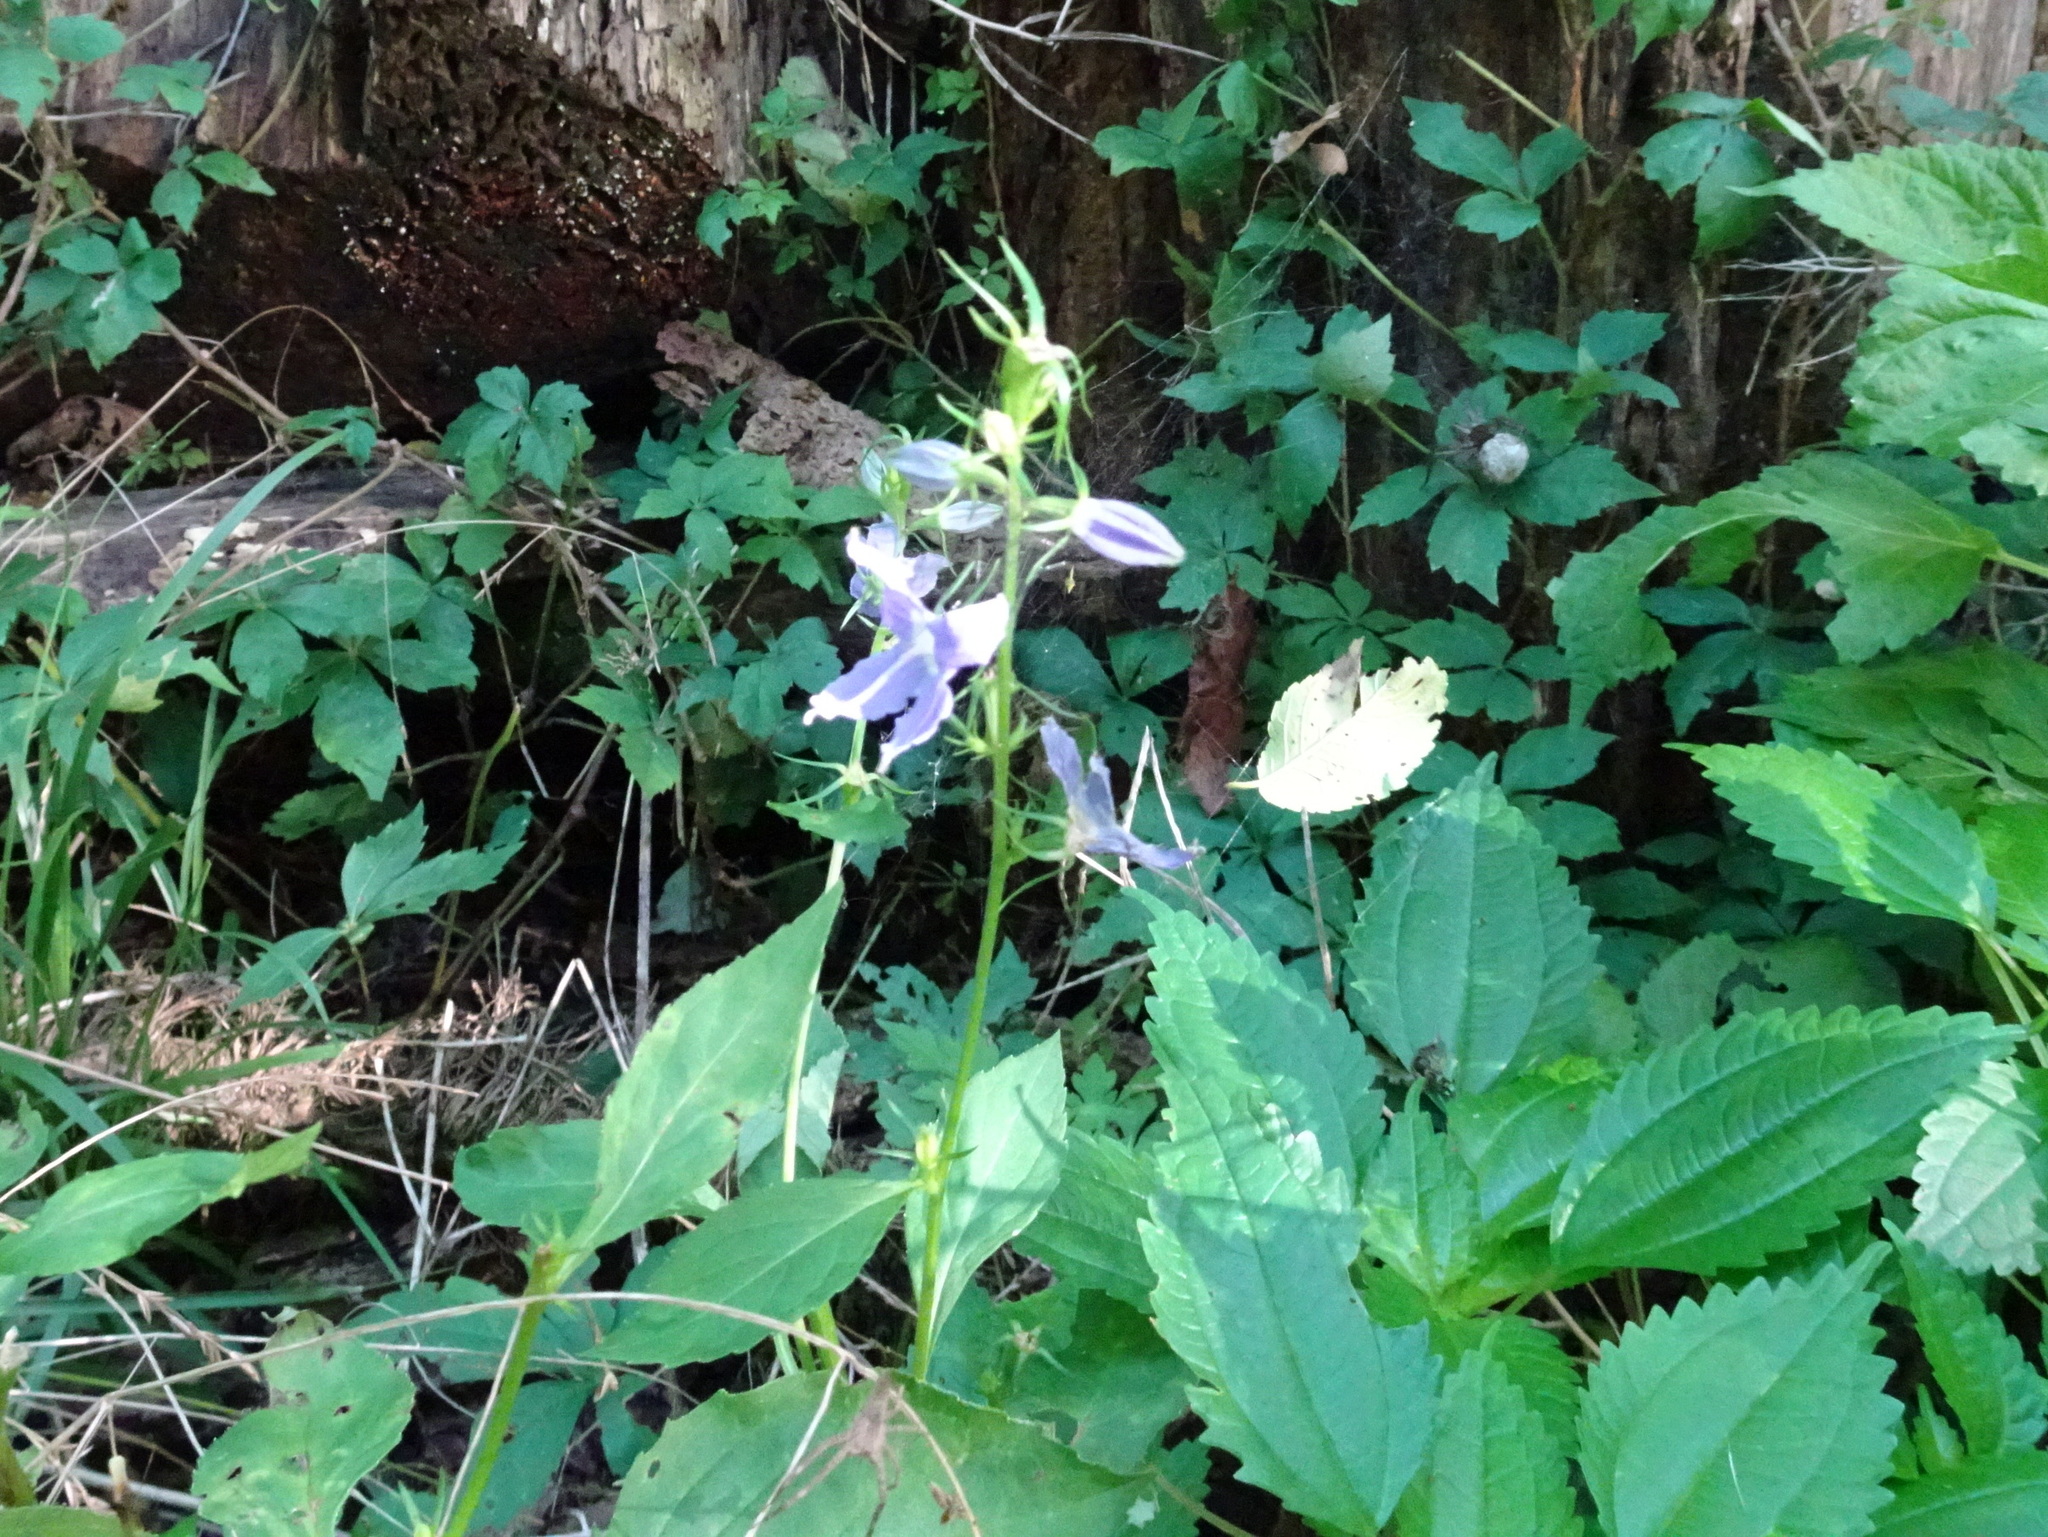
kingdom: Plantae
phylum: Tracheophyta
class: Magnoliopsida
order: Asterales
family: Campanulaceae
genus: Campanulastrum
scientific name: Campanulastrum americanum
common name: American bellflower
